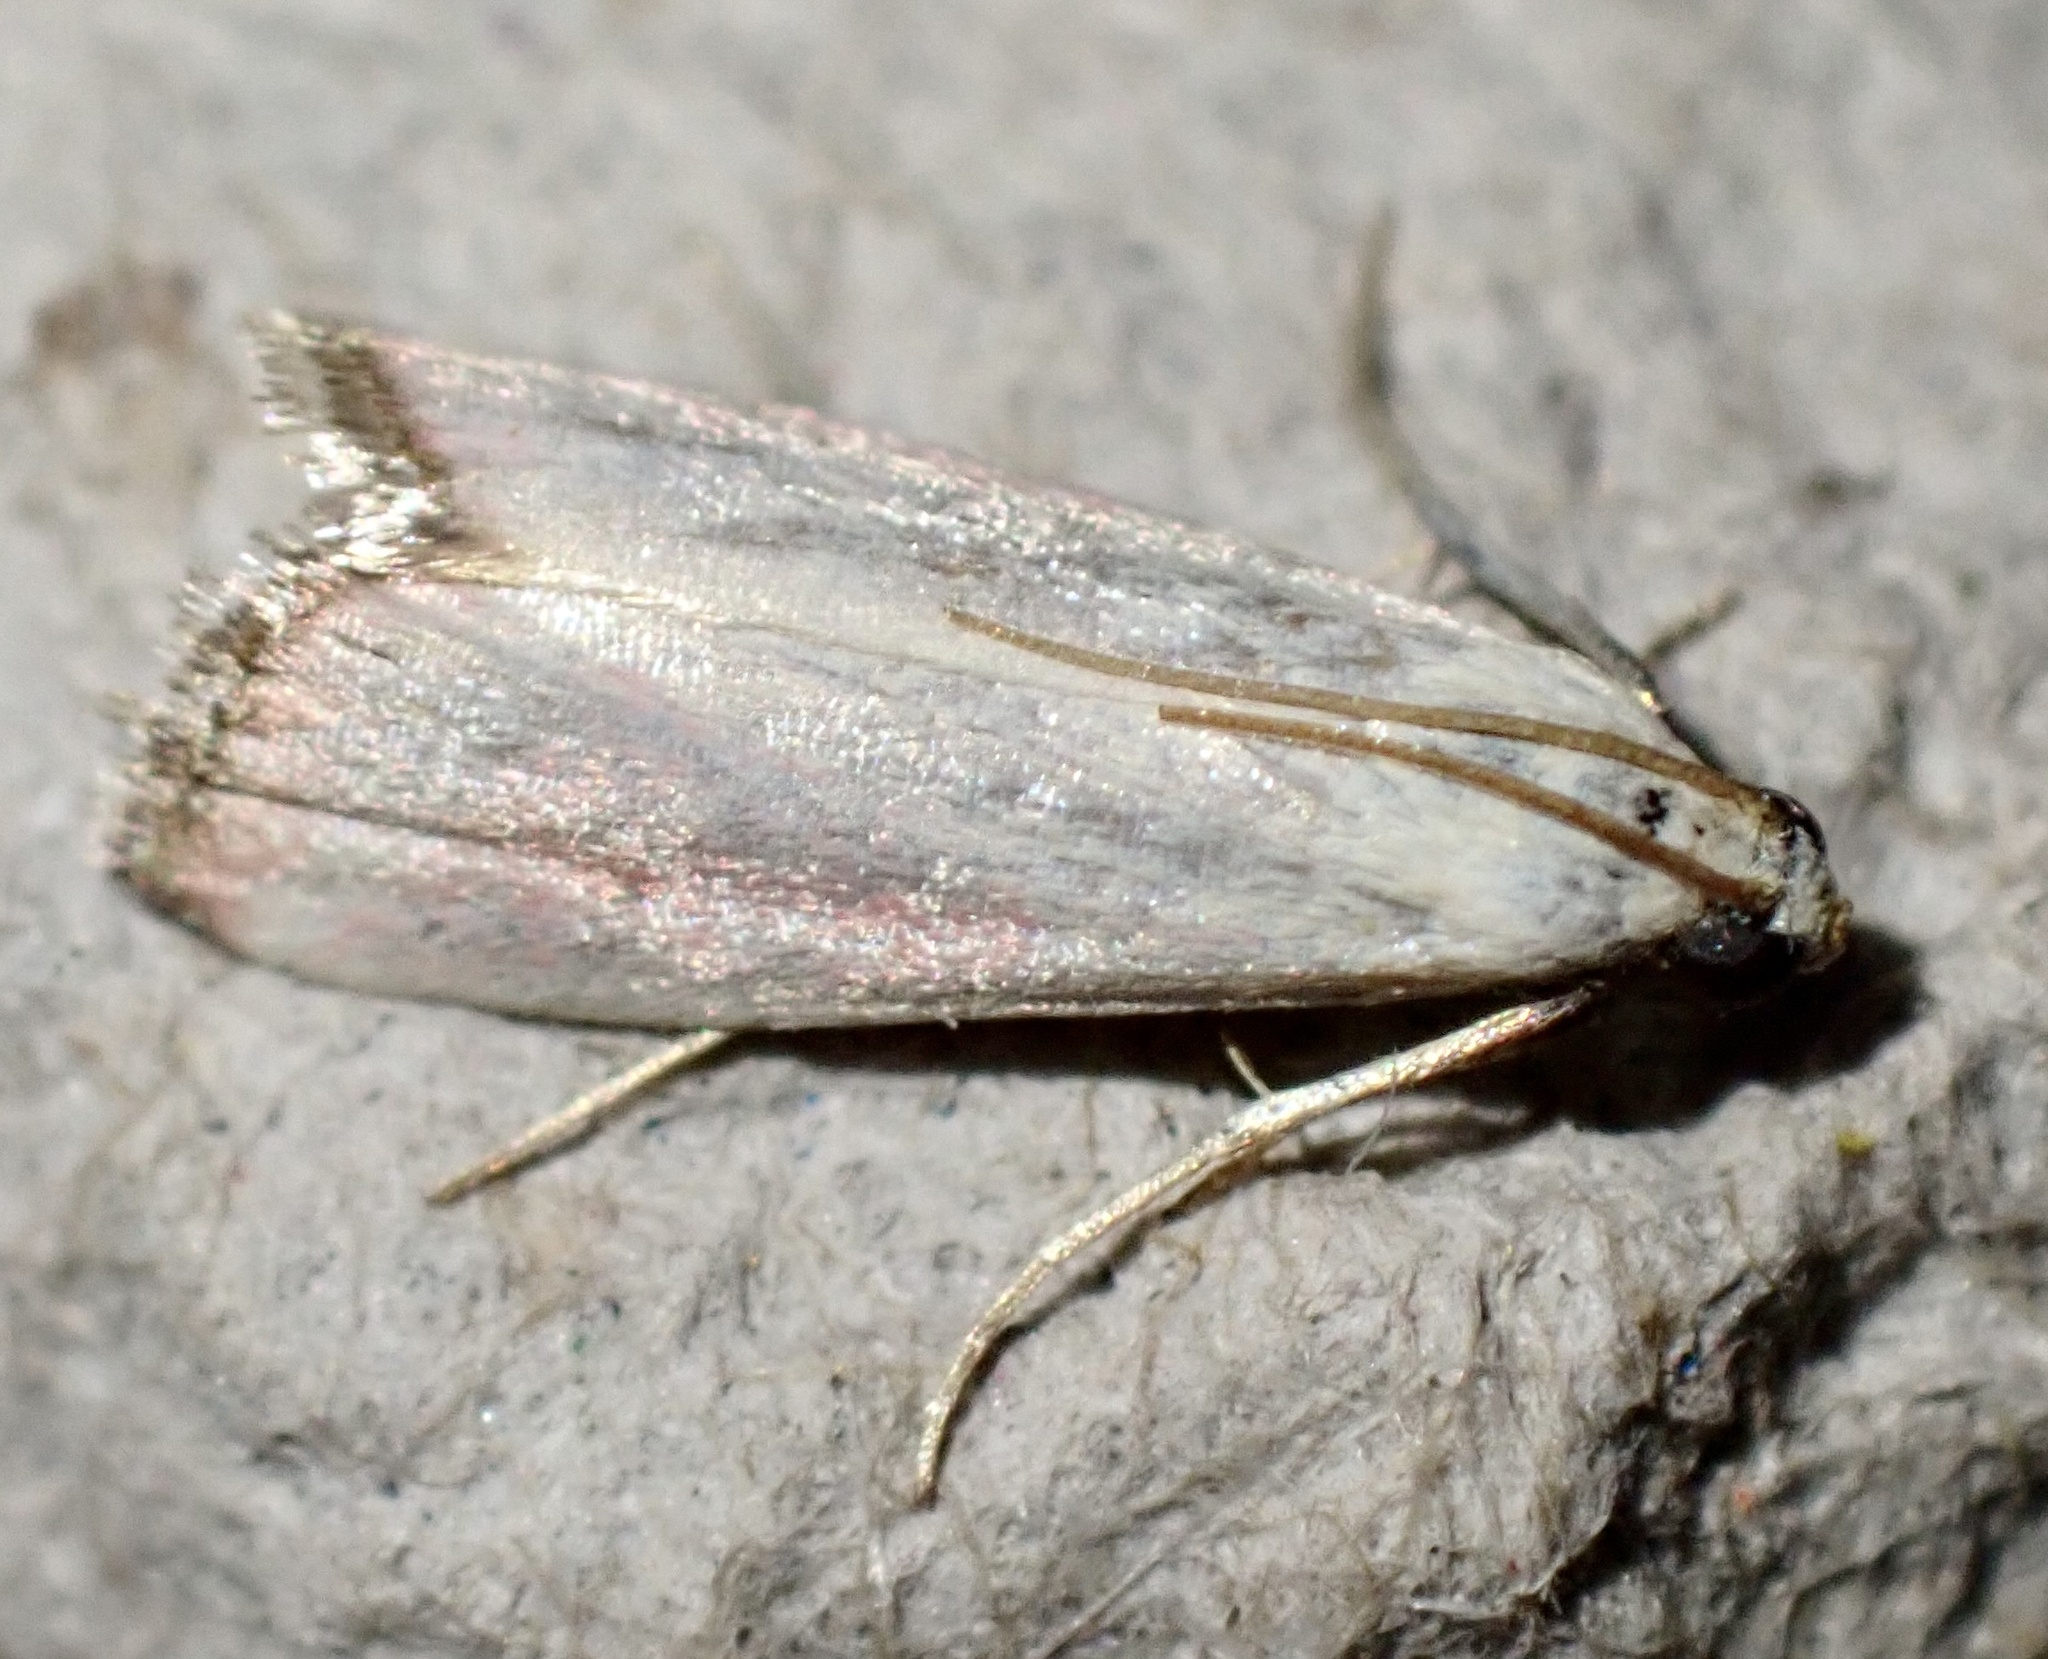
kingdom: Animalia
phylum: Arthropoda
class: Insecta
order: Lepidoptera
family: Pyralidae
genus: Eurhodope
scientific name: Eurhodope rosella
